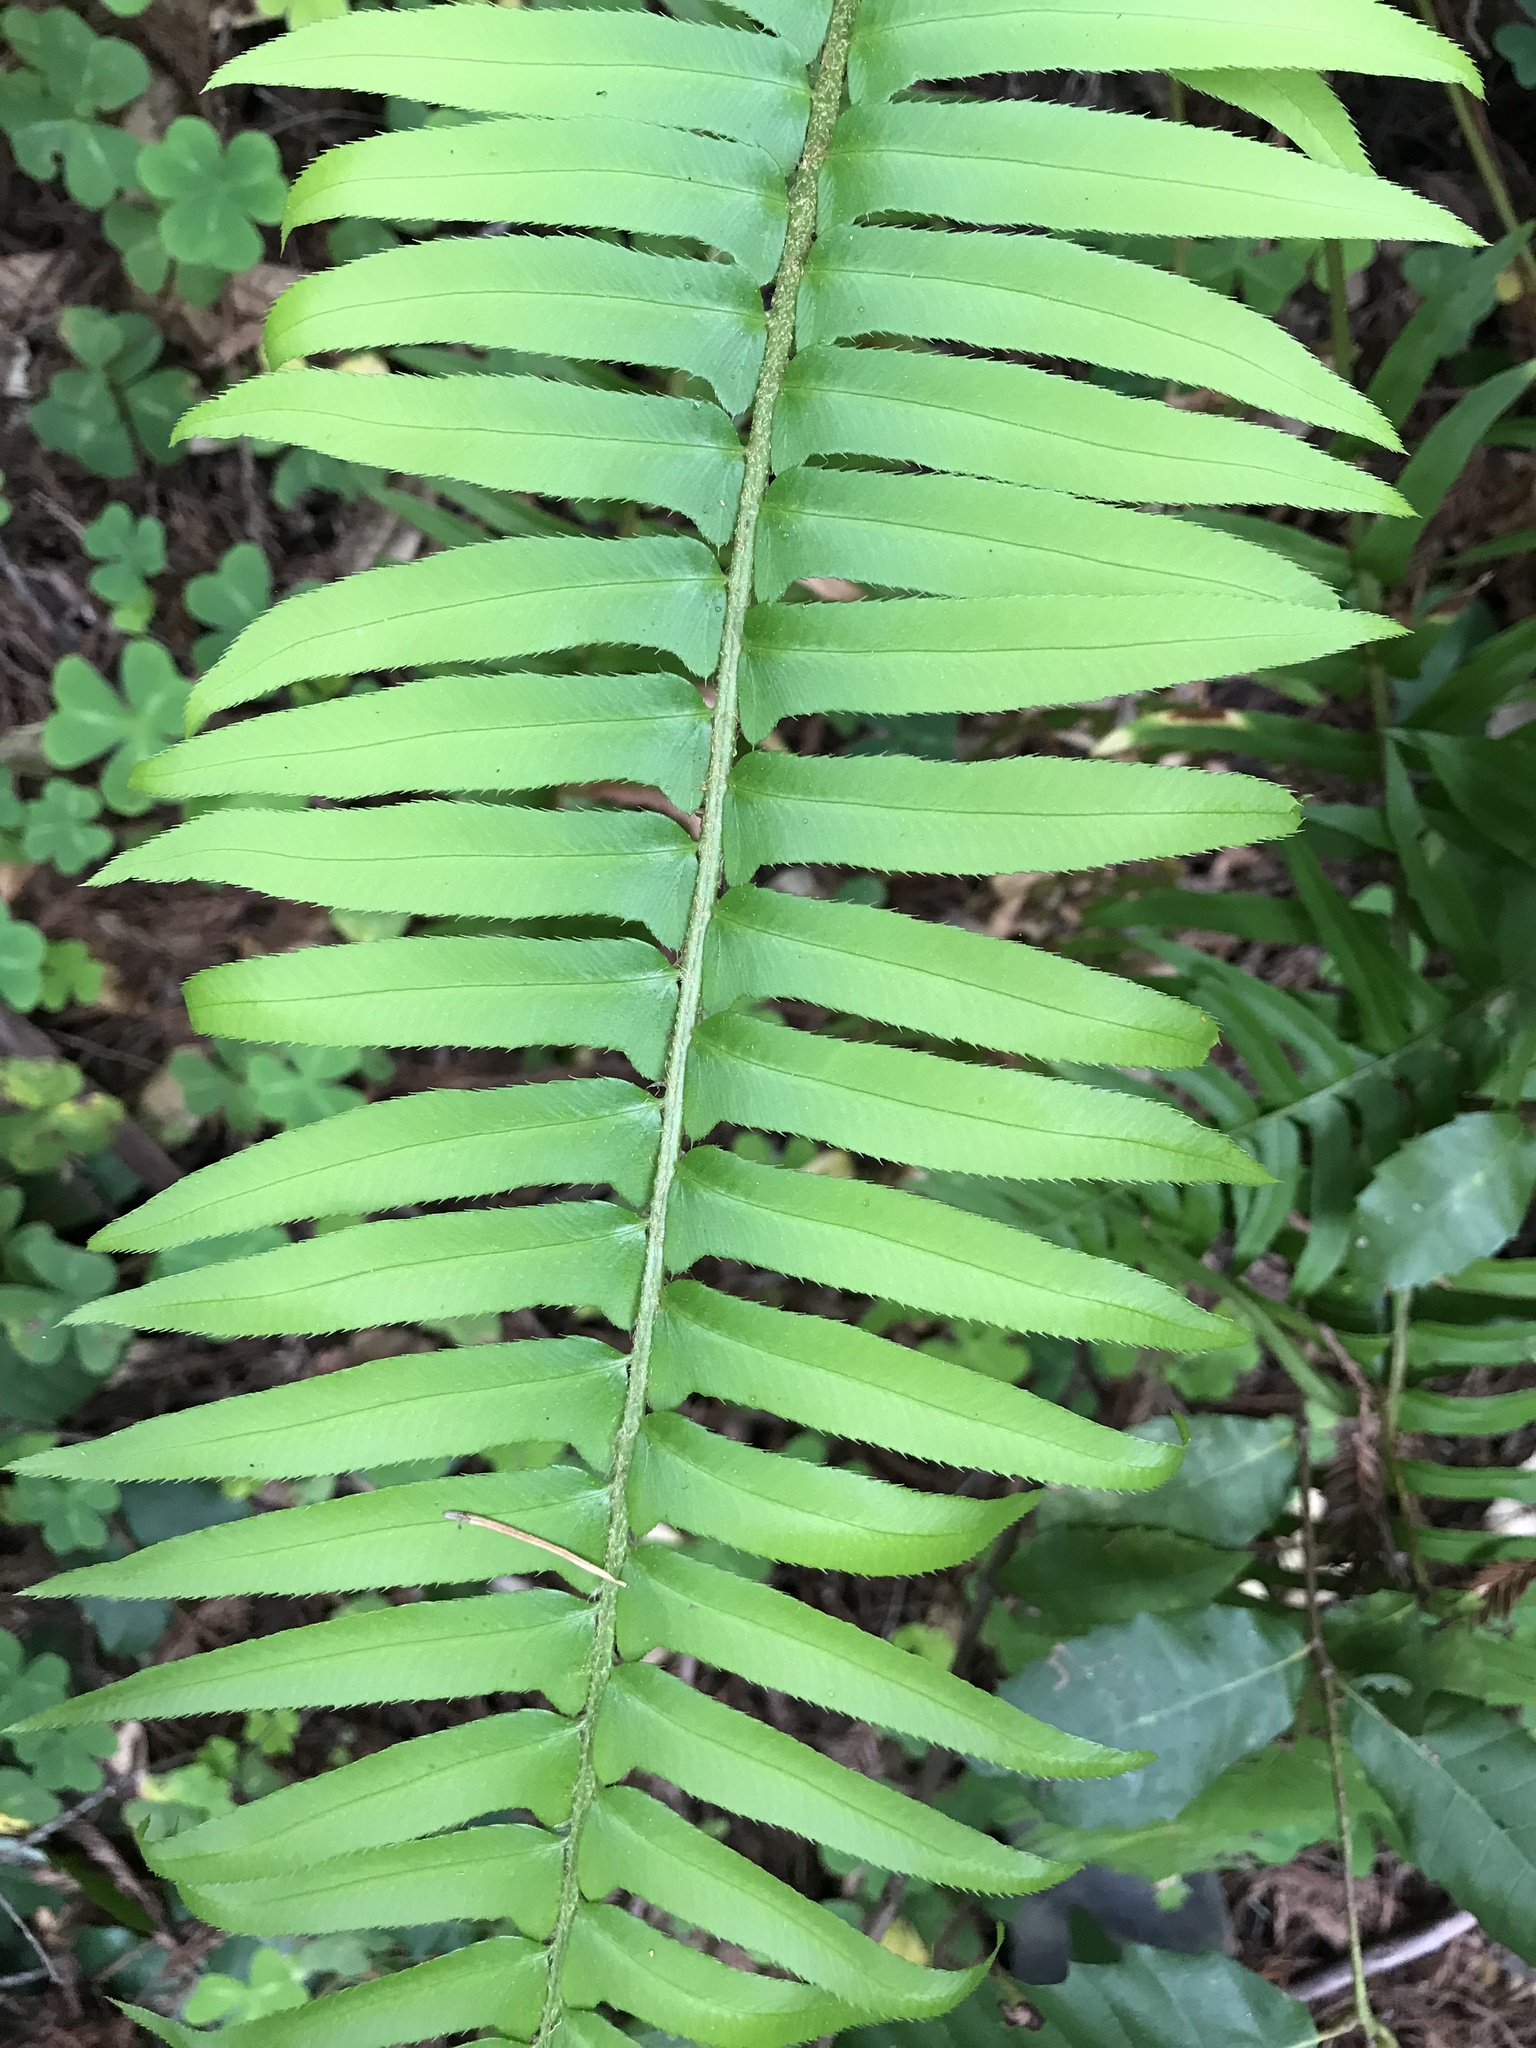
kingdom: Plantae
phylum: Tracheophyta
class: Polypodiopsida
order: Polypodiales
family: Dryopteridaceae
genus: Polystichum
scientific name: Polystichum munitum
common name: Western sword-fern
